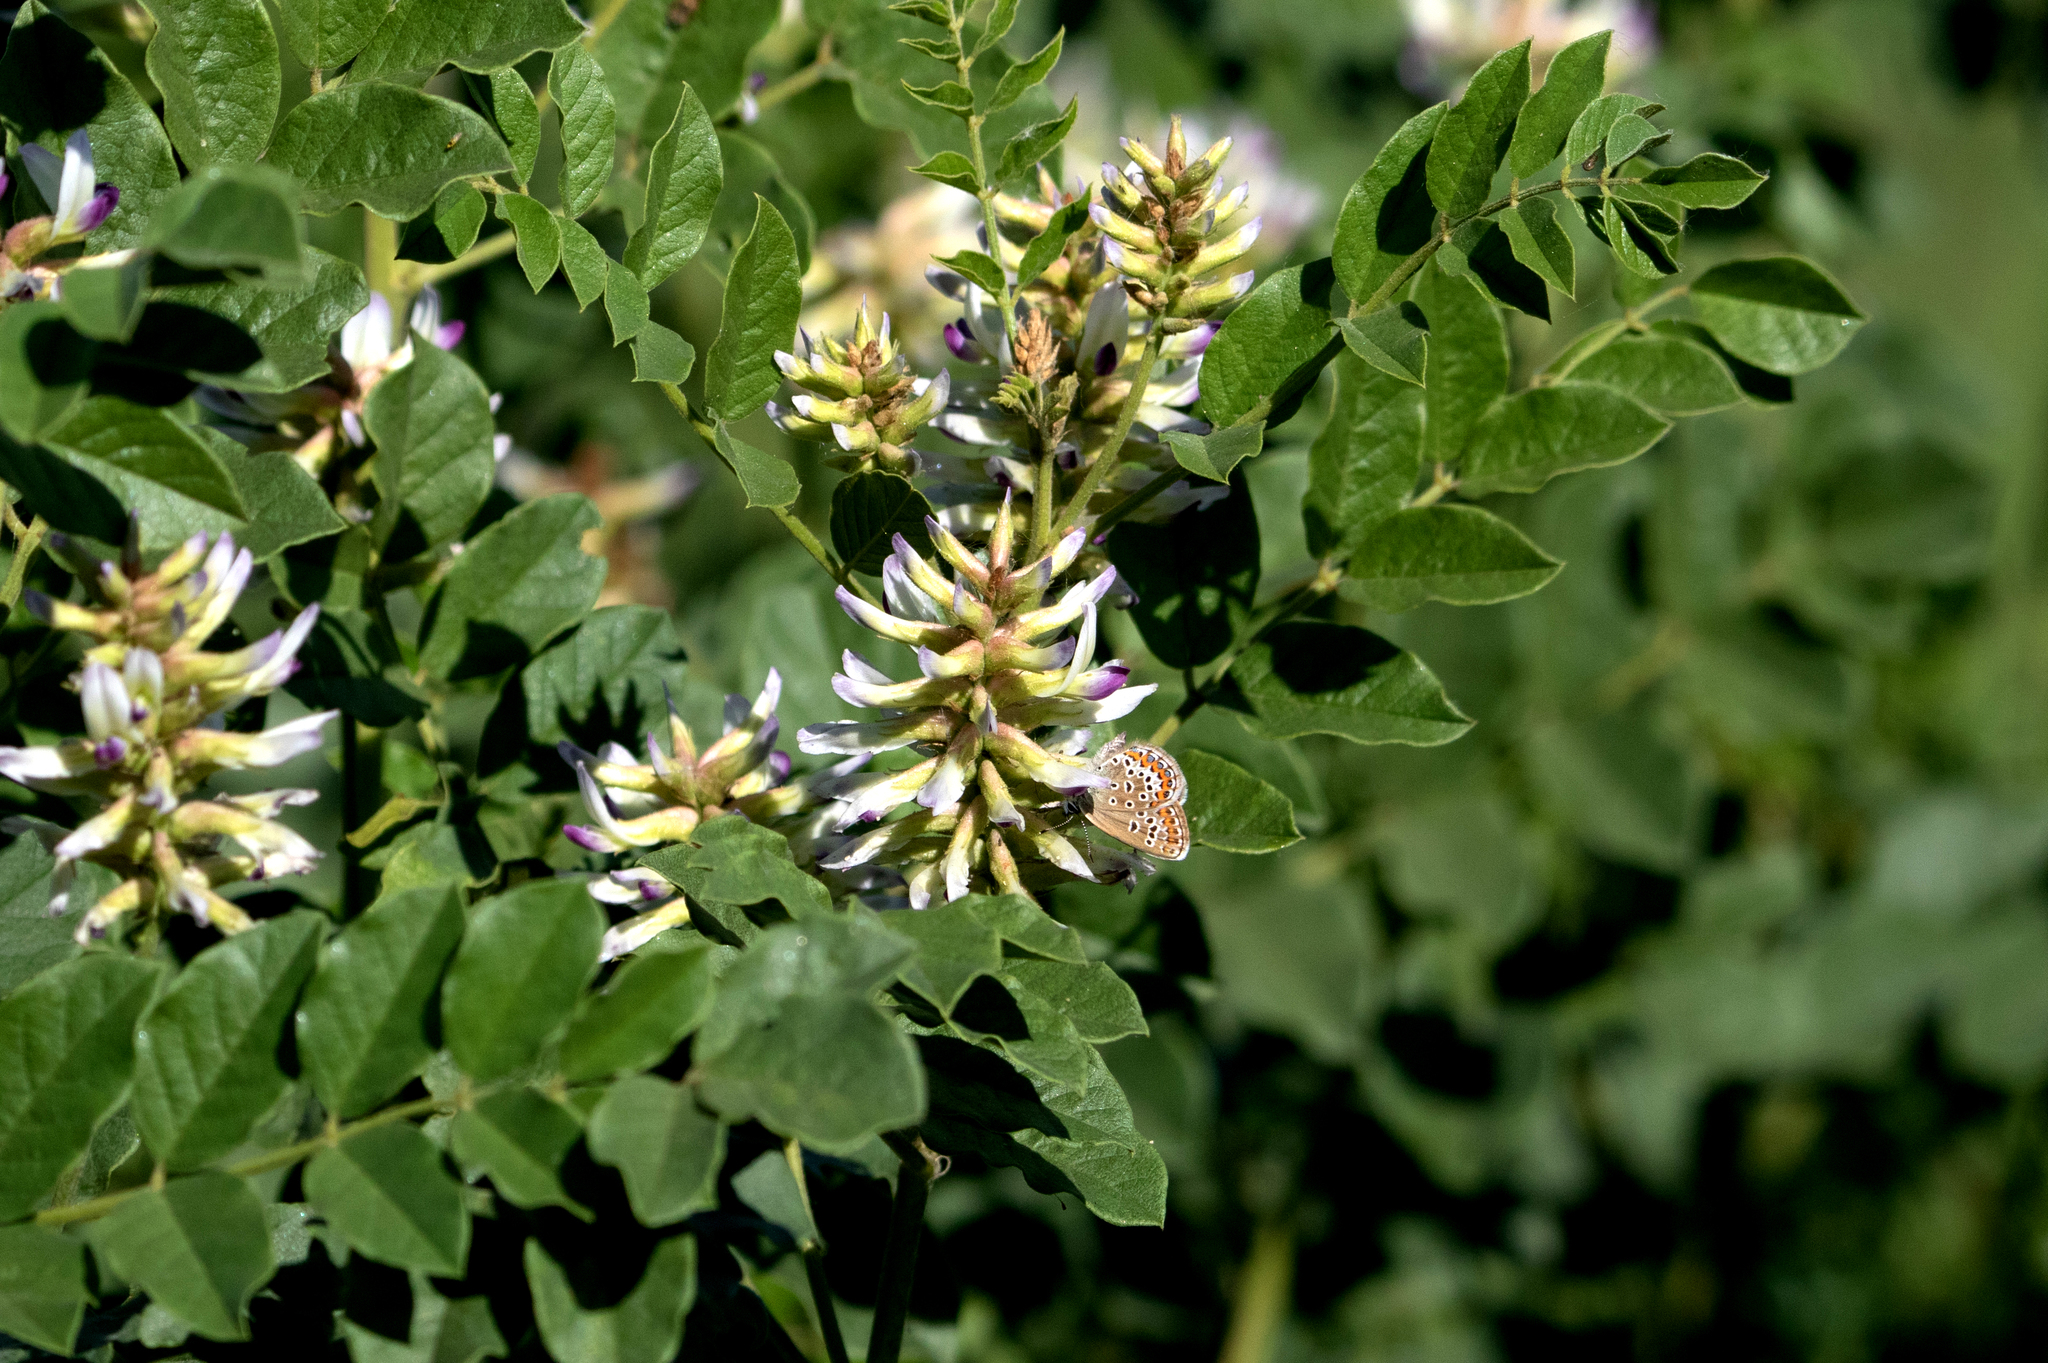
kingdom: Plantae
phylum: Tracheophyta
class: Magnoliopsida
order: Fabales
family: Fabaceae
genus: Glycyrrhiza
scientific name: Glycyrrhiza uralensis
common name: Chinese licorice
